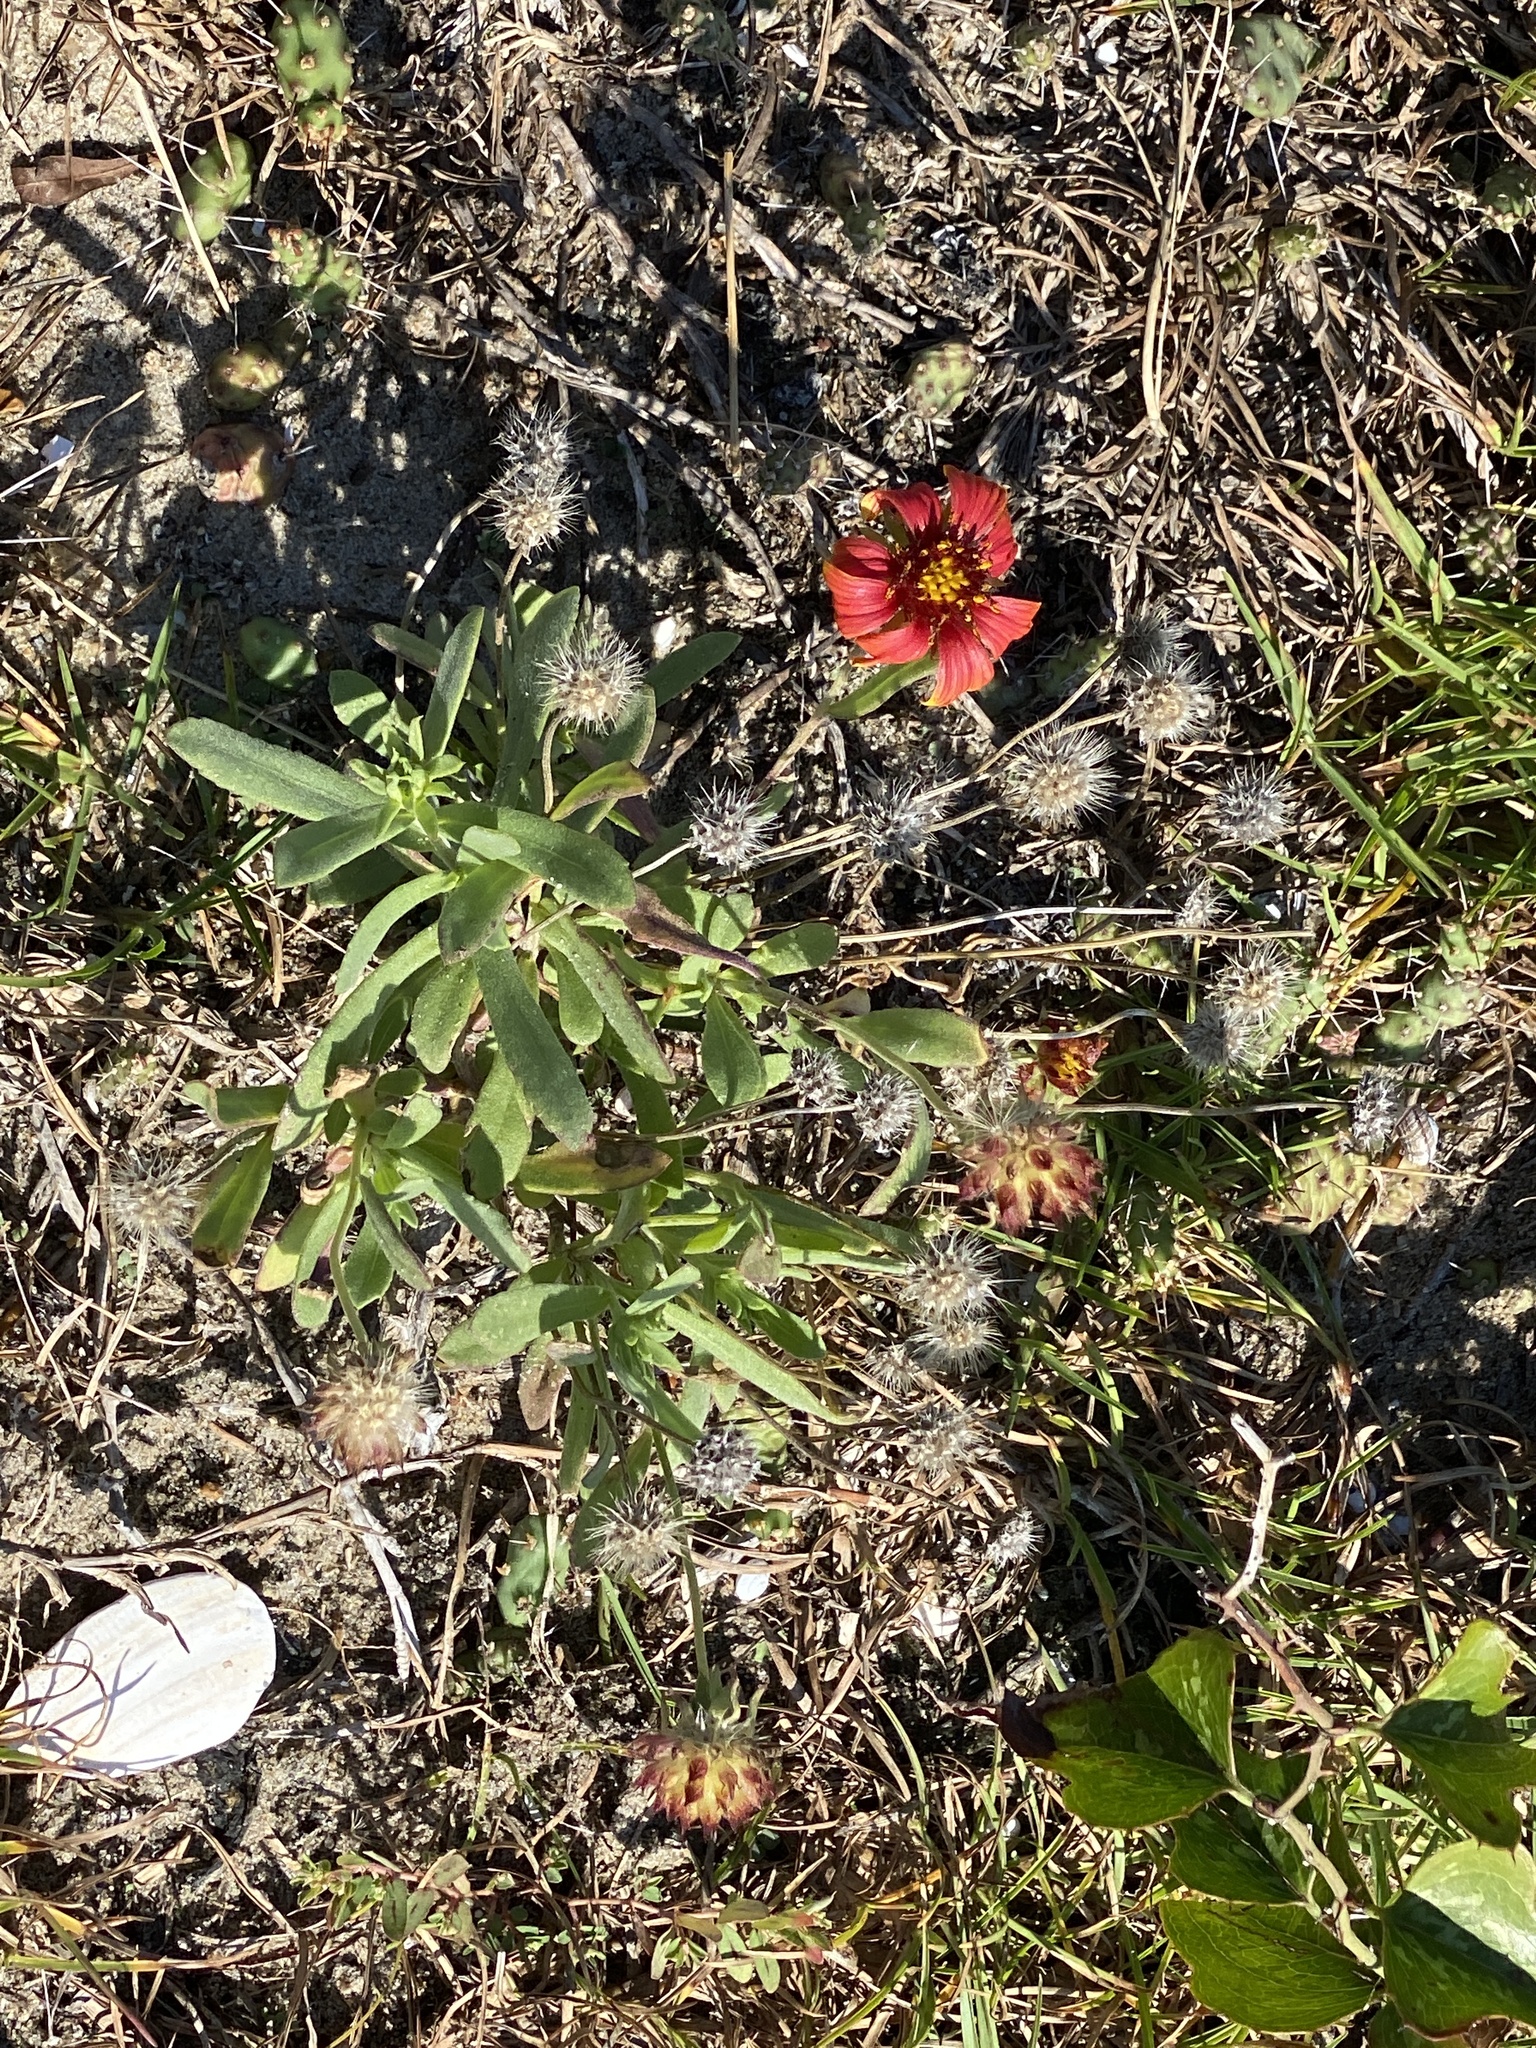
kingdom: Plantae
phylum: Tracheophyta
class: Magnoliopsida
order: Asterales
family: Asteraceae
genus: Gaillardia
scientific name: Gaillardia pulchella
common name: Firewheel
